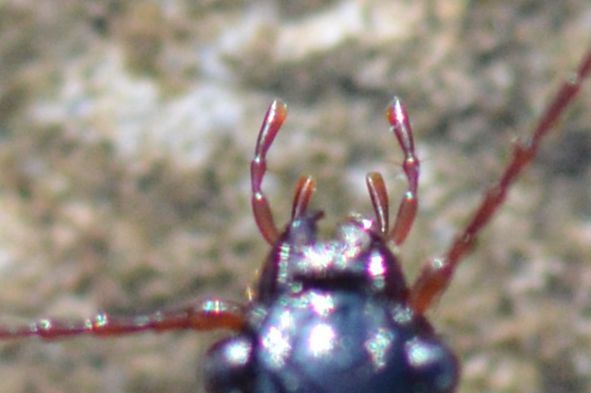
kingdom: Animalia
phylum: Arthropoda
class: Insecta
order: Coleoptera
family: Carabidae
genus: Nebria
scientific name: Nebria brevicollis
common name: Short-necked gazelle beetle
